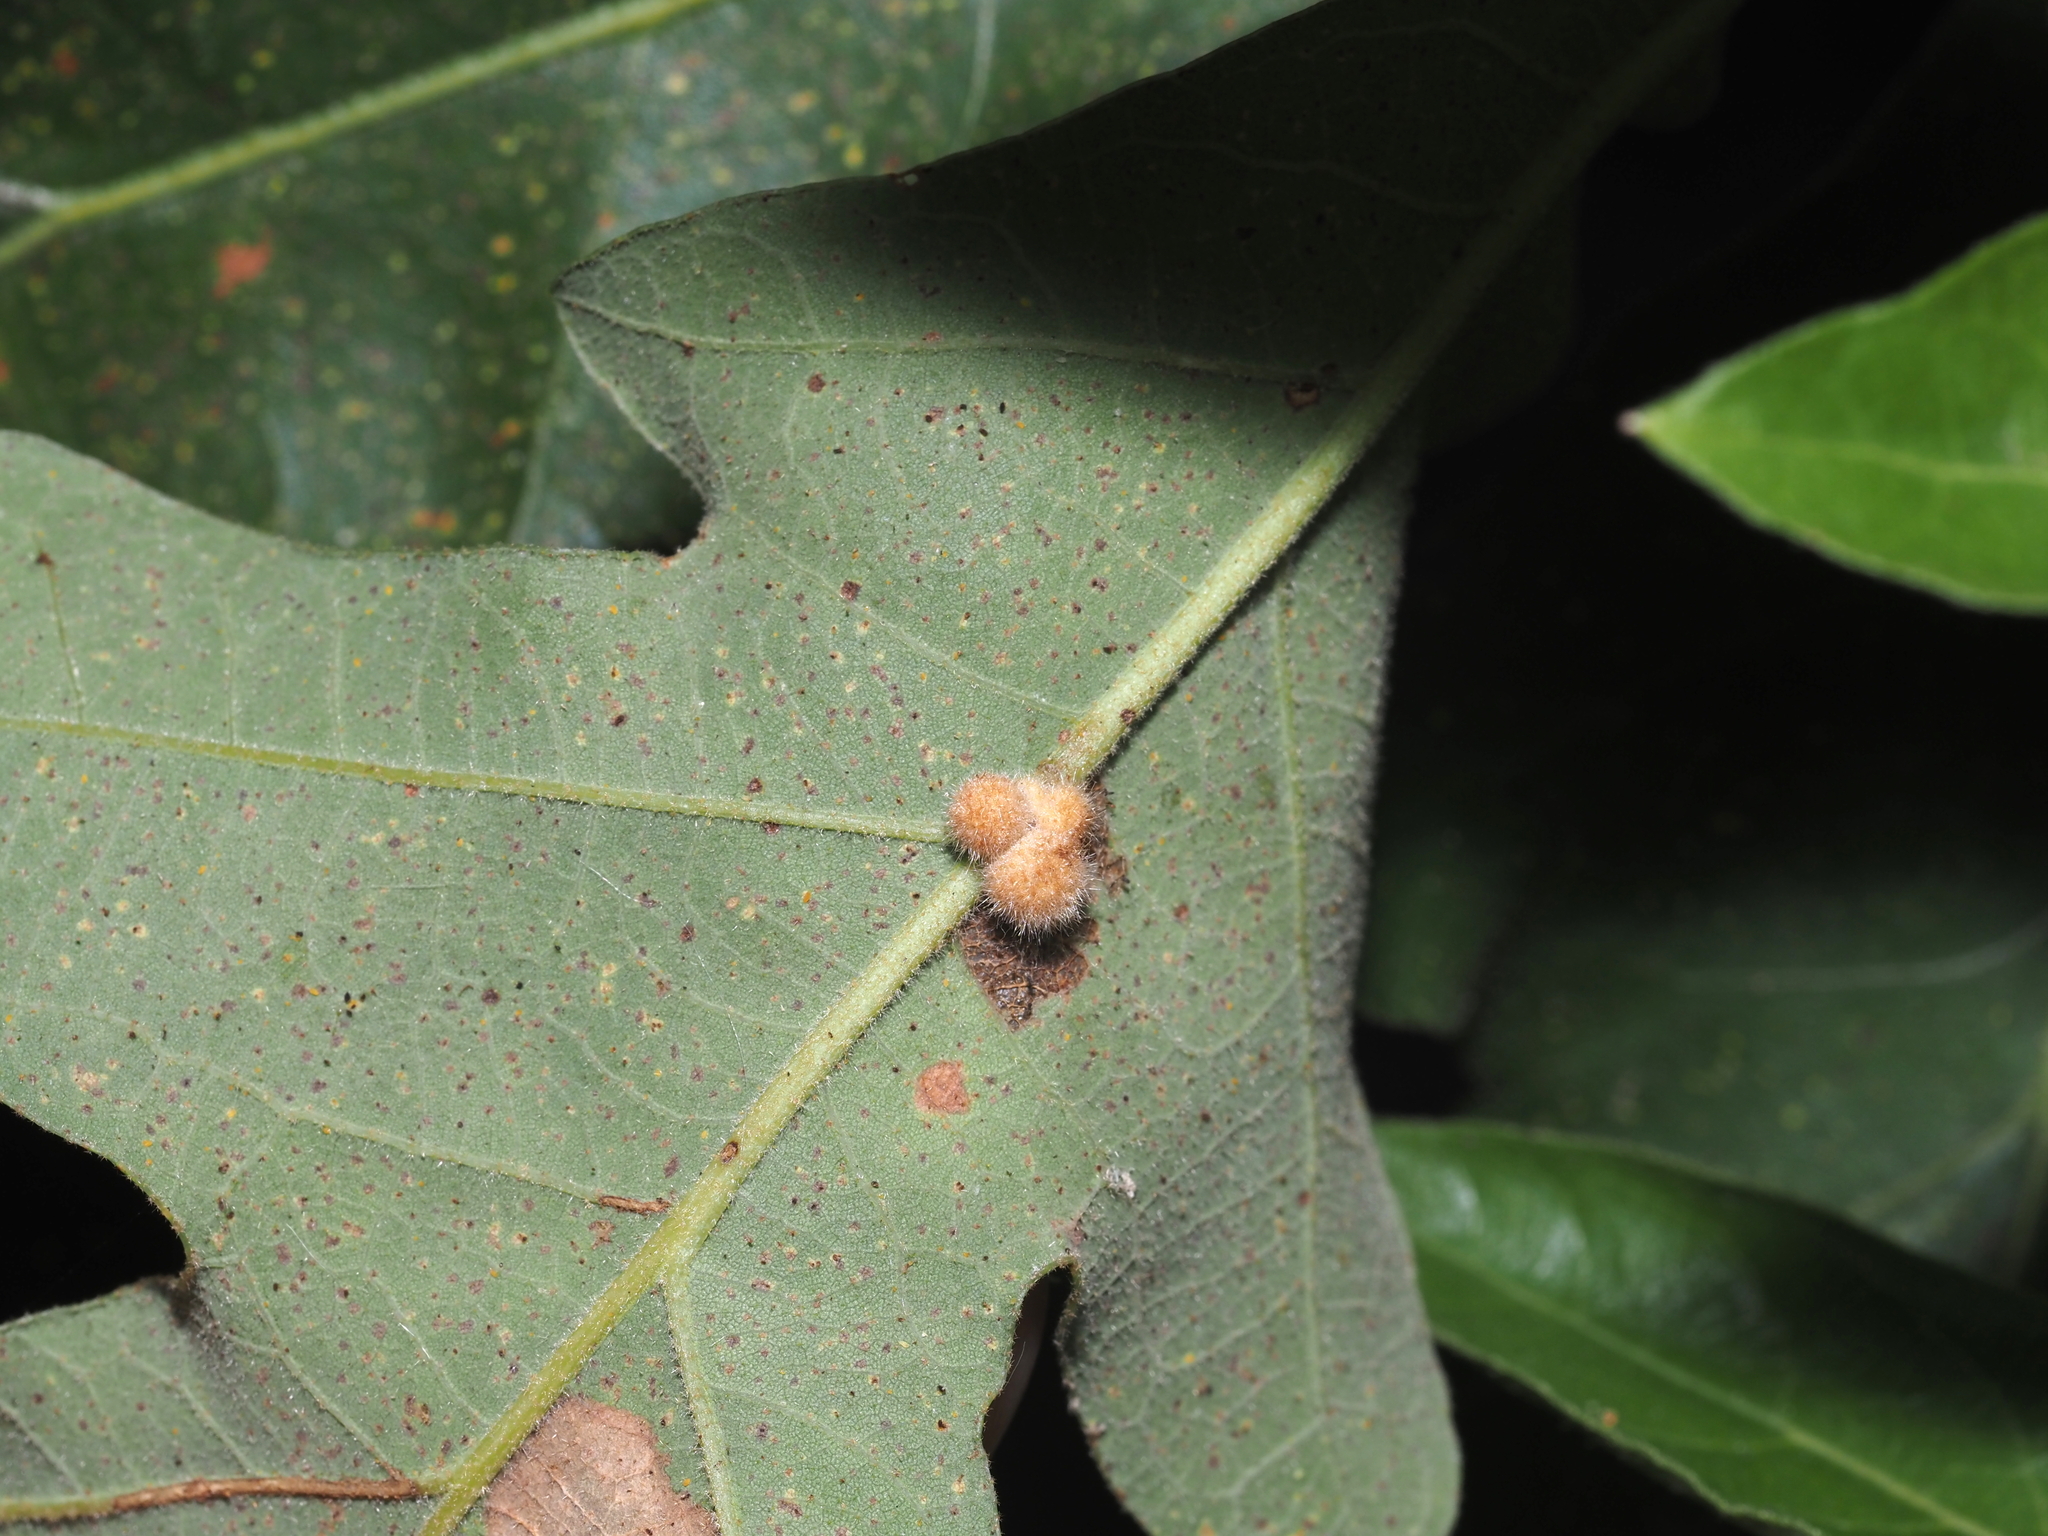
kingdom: Animalia
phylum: Arthropoda
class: Insecta
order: Hymenoptera
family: Cynipidae
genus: Biorhiza
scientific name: Biorhiza Sphaeroteras carolina
